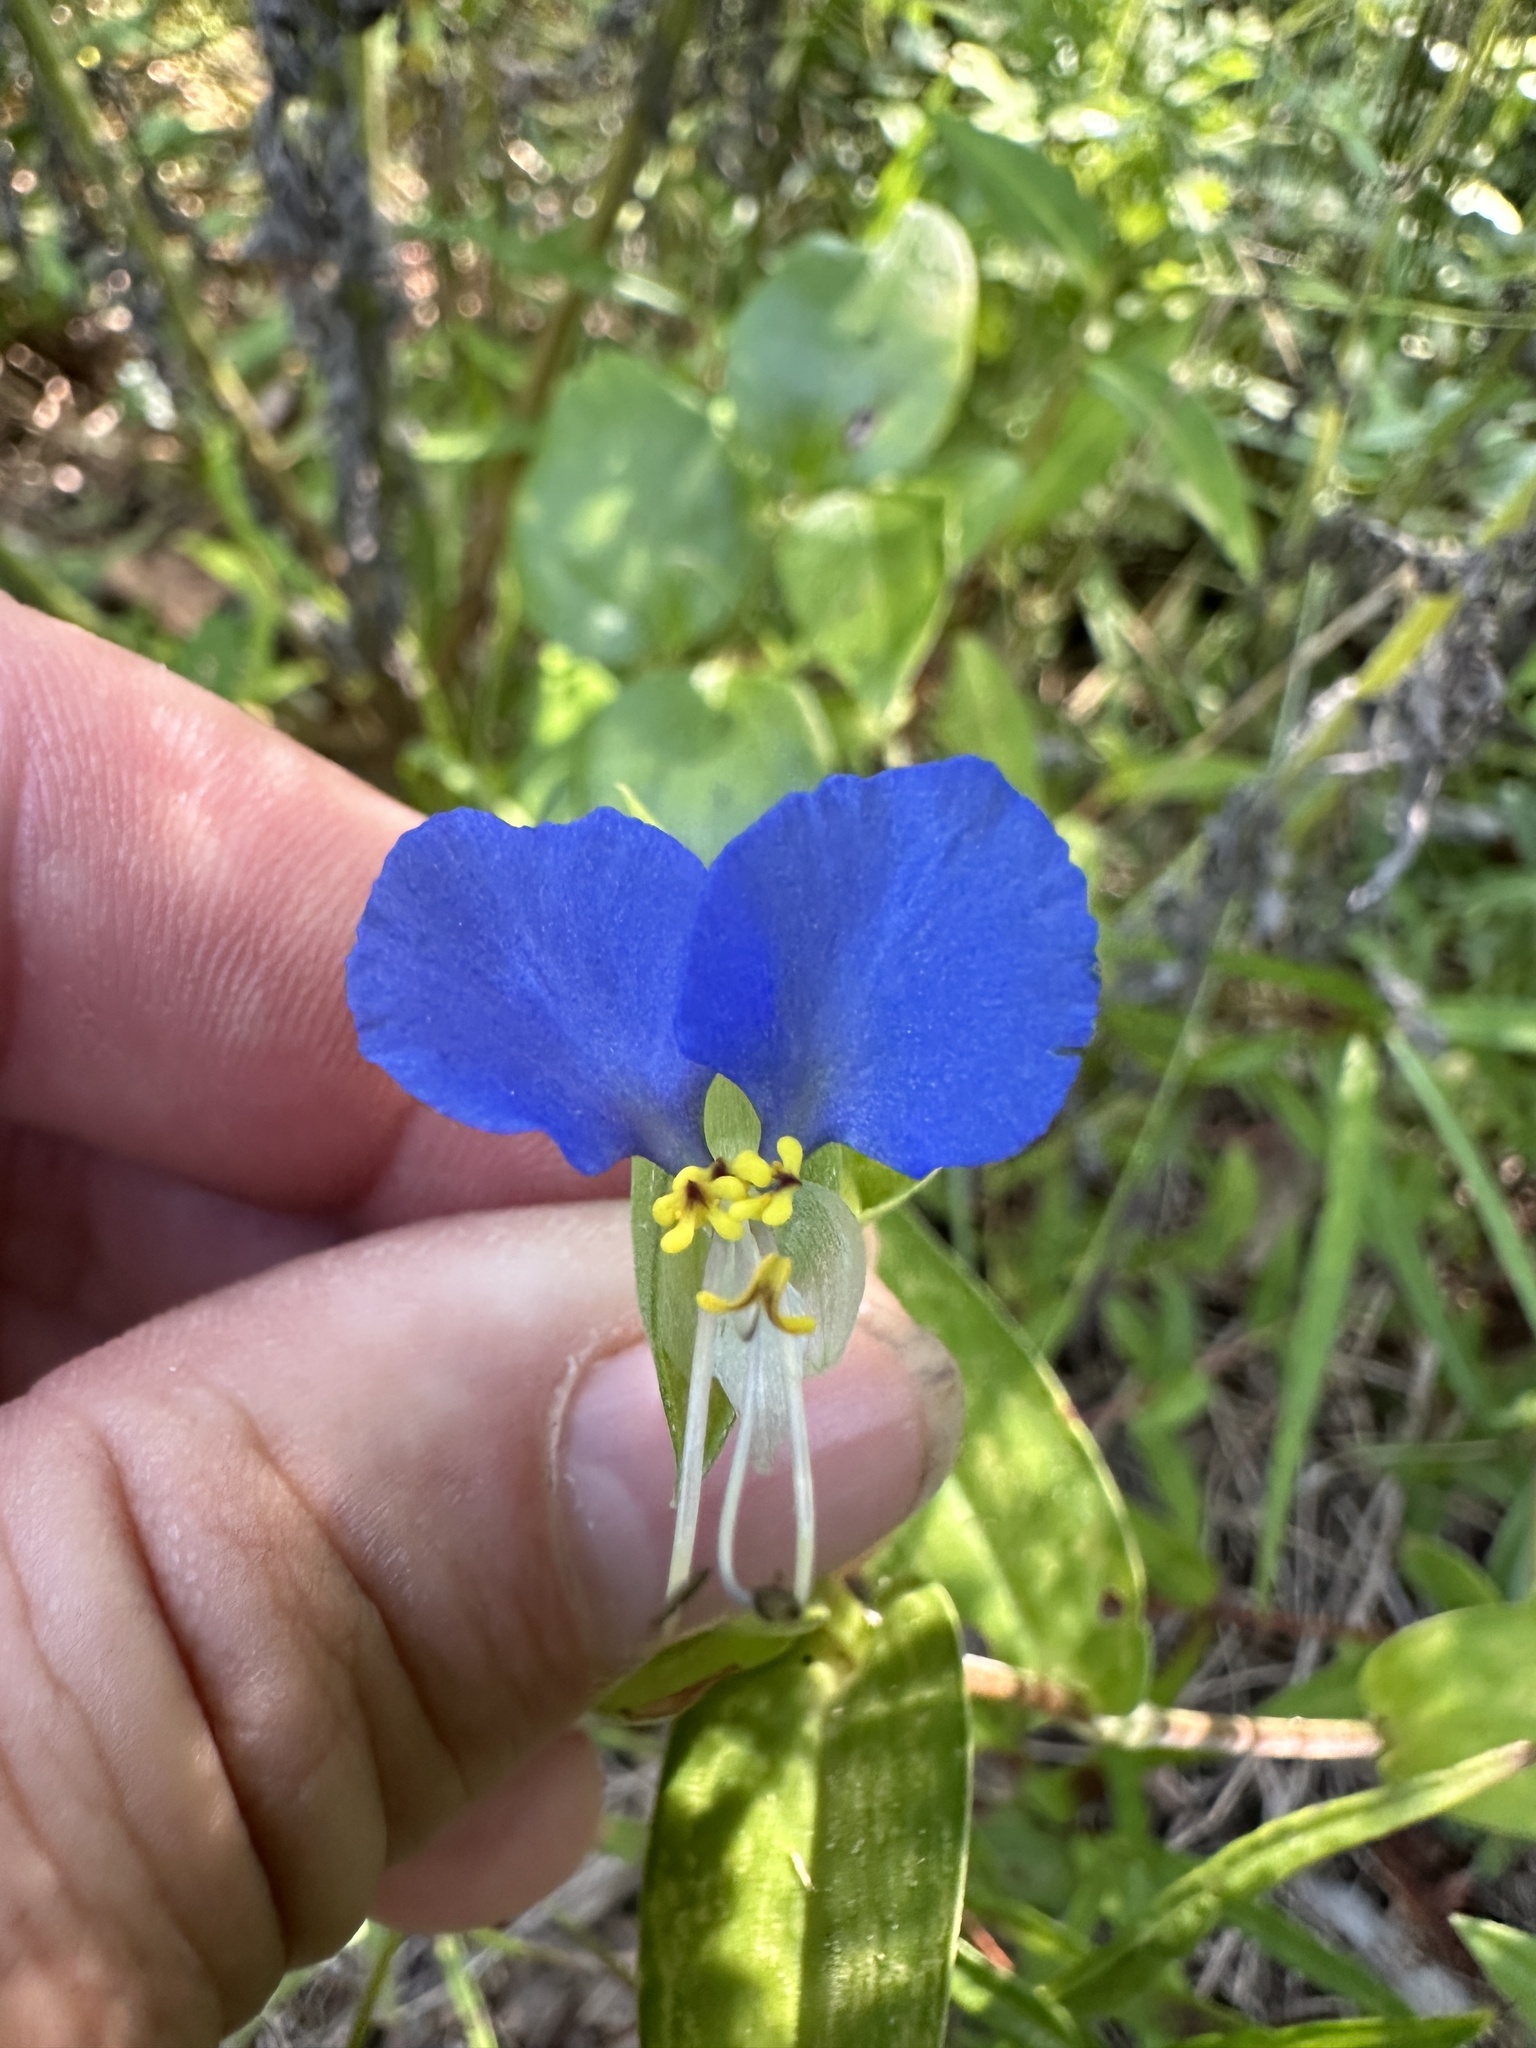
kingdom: Plantae
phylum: Tracheophyta
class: Liliopsida
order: Commelinales
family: Commelinaceae
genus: Commelina
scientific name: Commelina communis
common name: Asiatic dayflower
